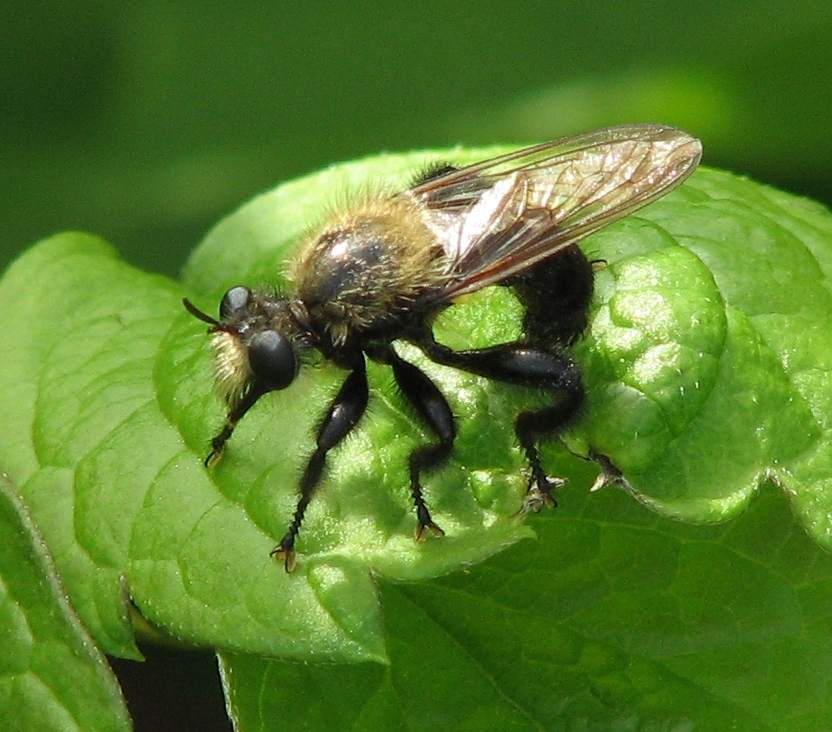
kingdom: Animalia
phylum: Arthropoda
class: Insecta
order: Diptera
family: Asilidae
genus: Laphria
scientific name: Laphria flavicollis
